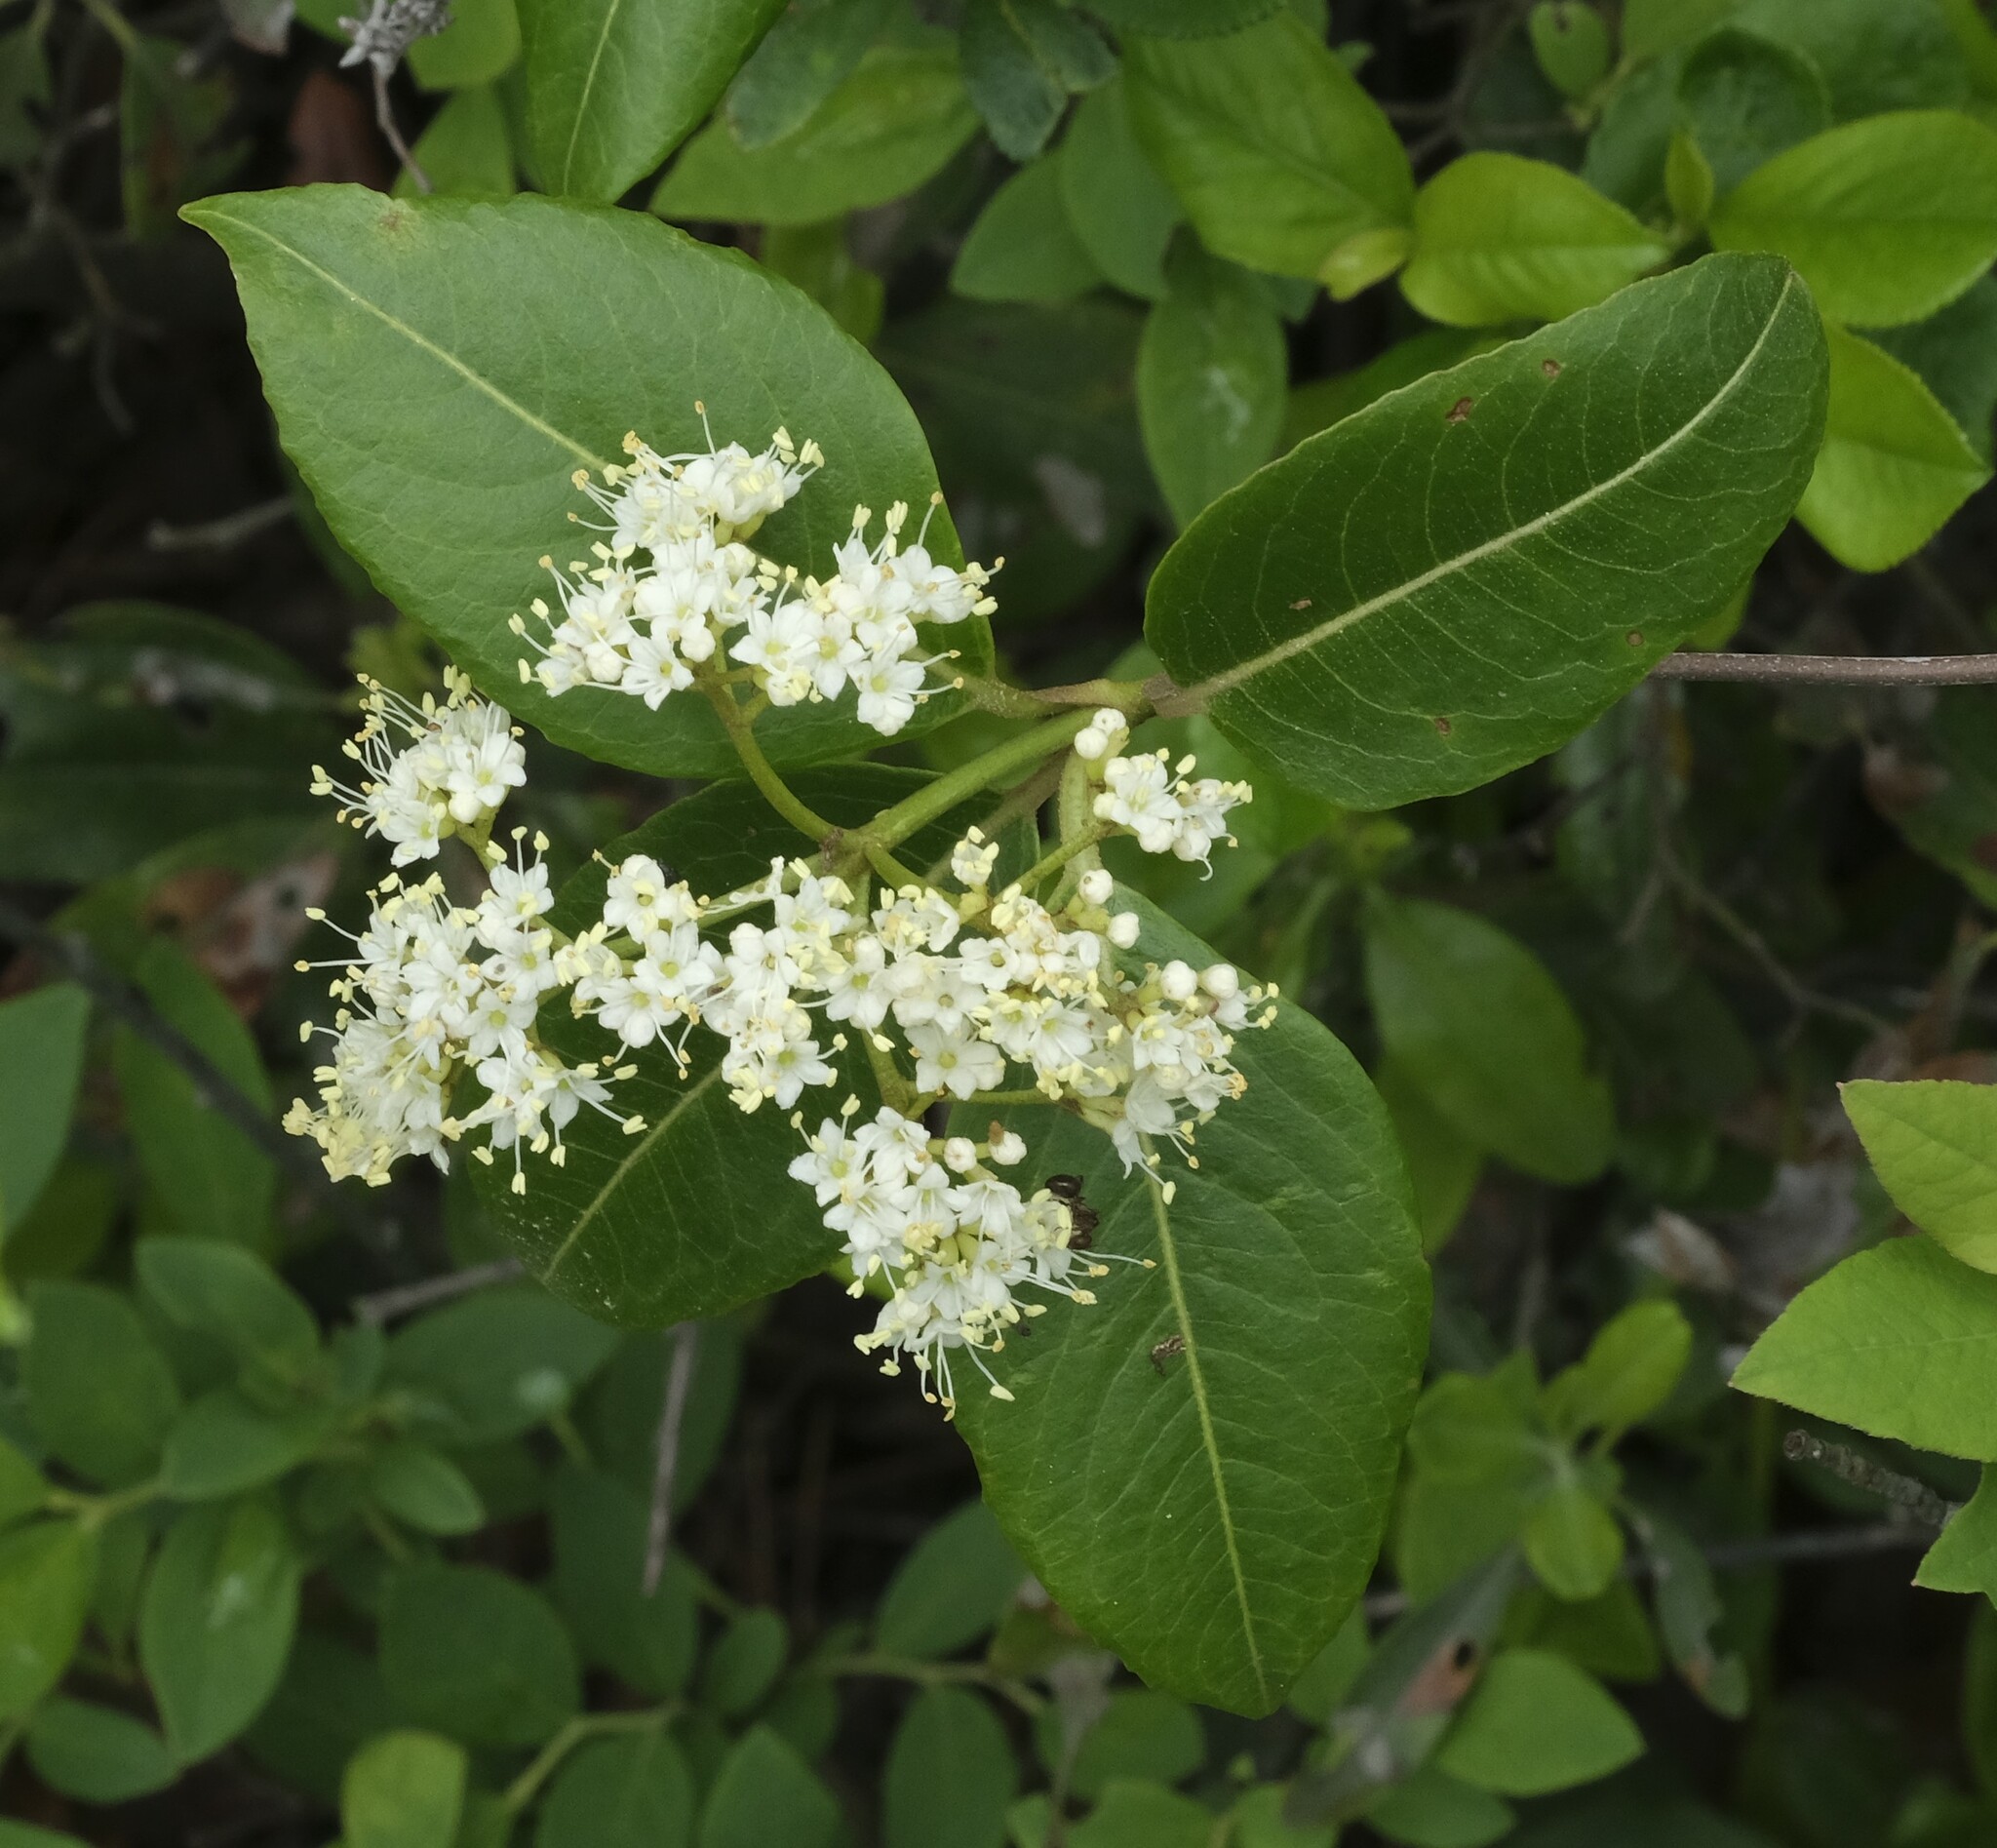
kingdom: Plantae
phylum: Tracheophyta
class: Magnoliopsida
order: Dipsacales
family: Viburnaceae
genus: Viburnum
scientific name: Viburnum cassinoides
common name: Swamp haw
